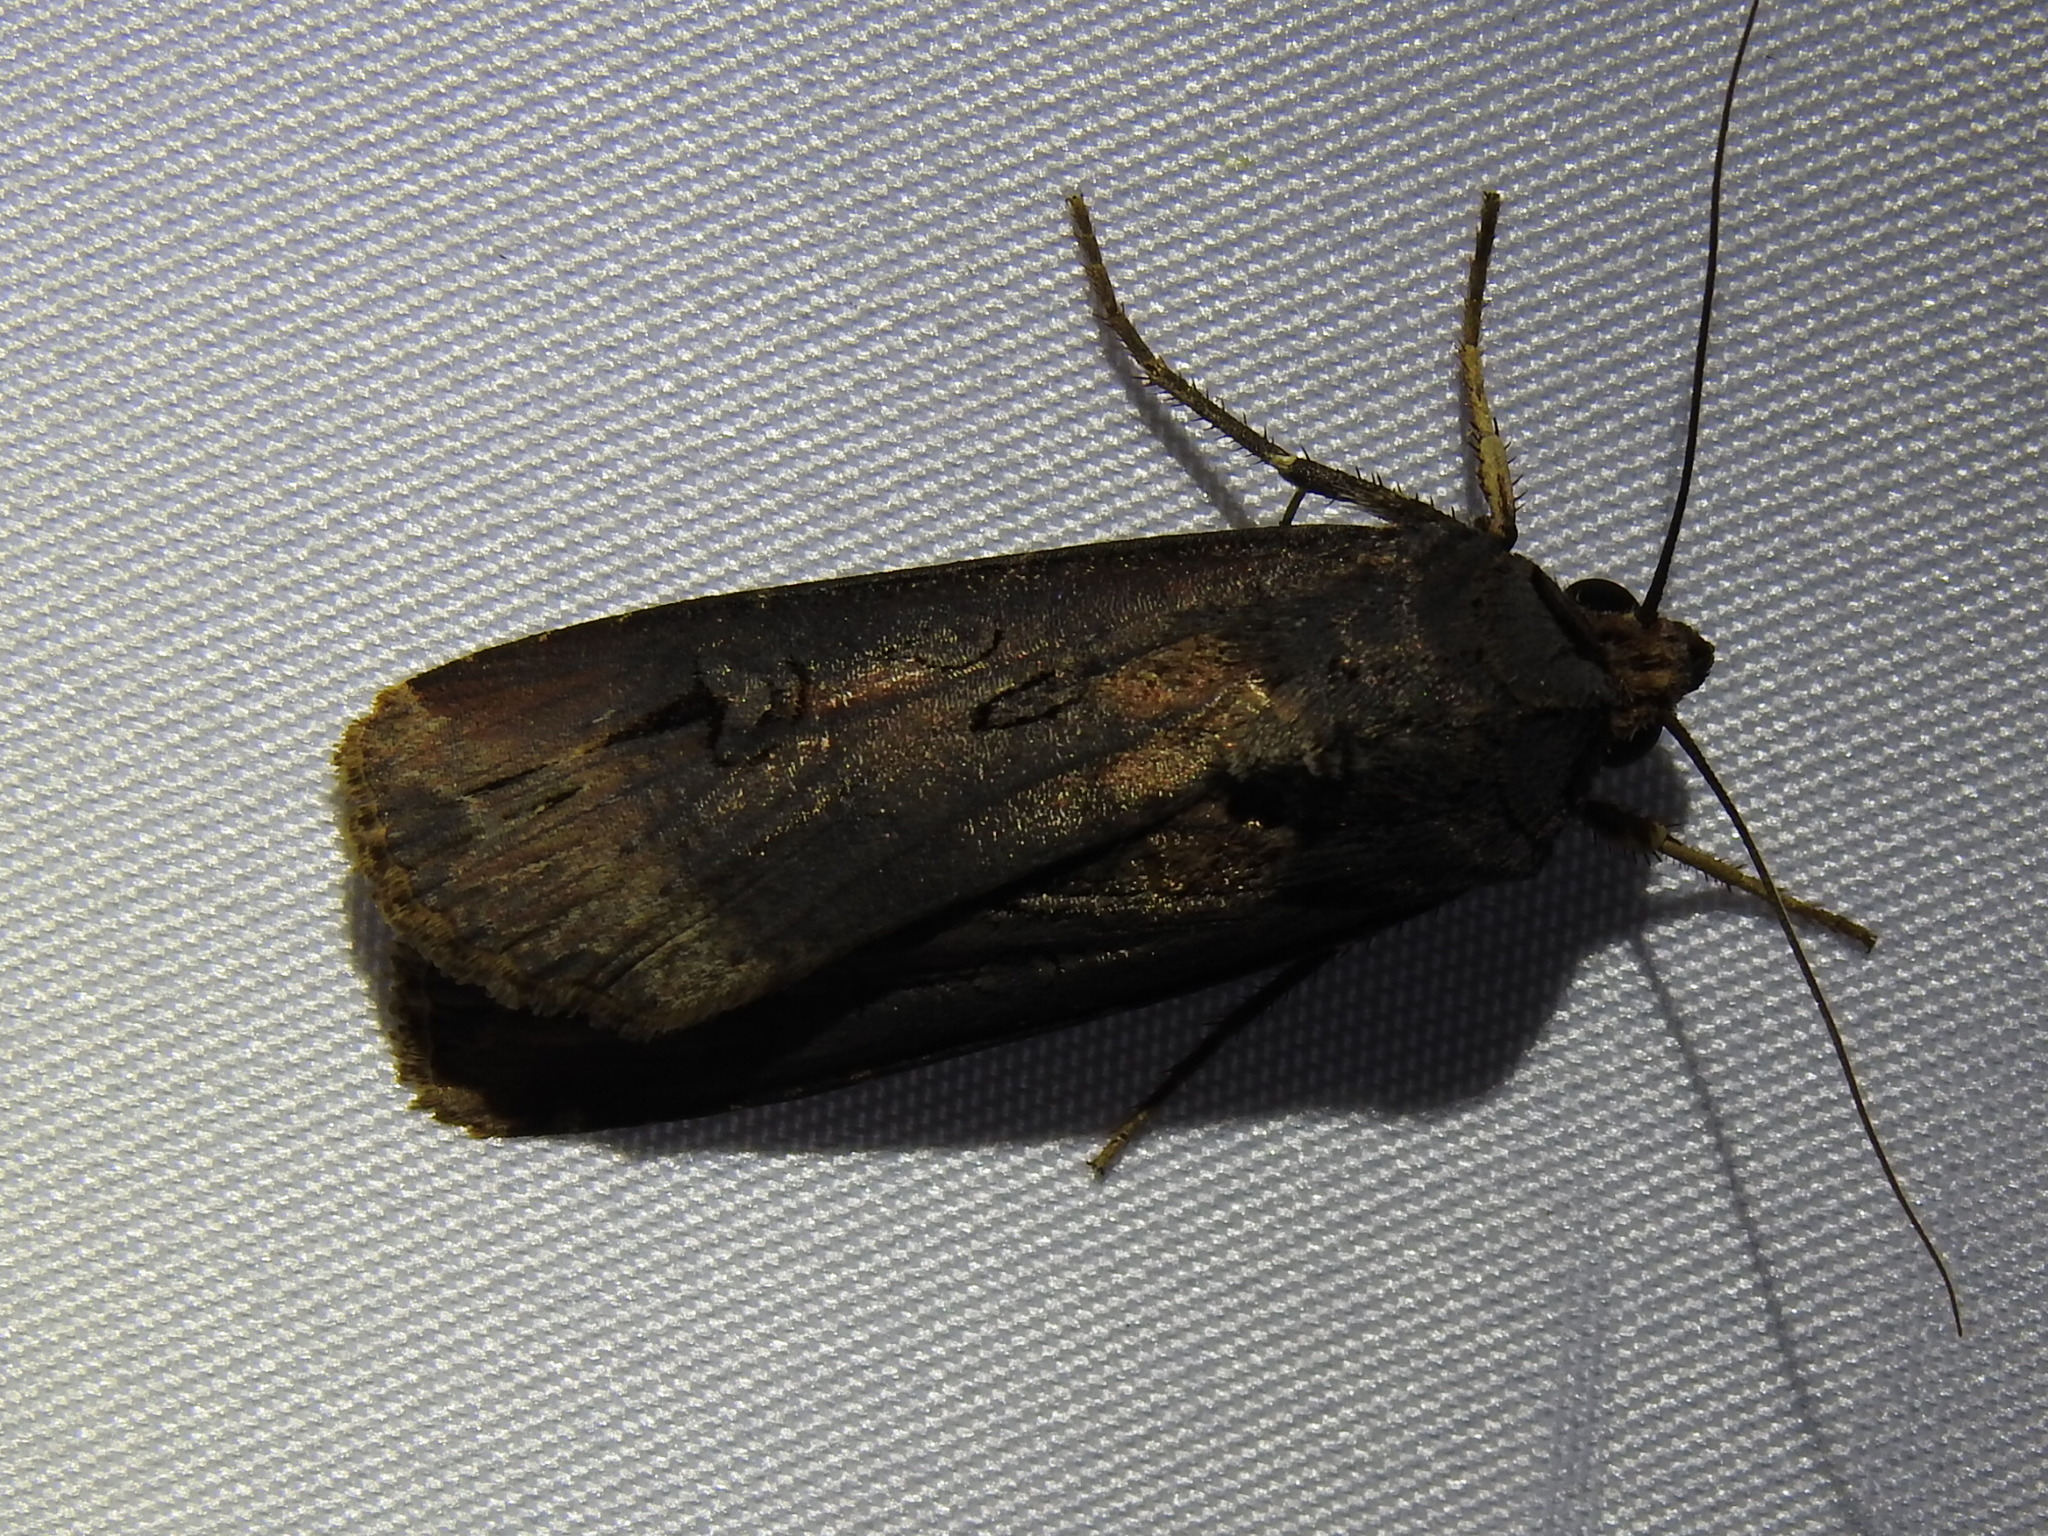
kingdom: Animalia
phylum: Arthropoda
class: Insecta
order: Lepidoptera
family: Noctuidae
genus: Agrotis
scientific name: Agrotis ipsilon
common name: Dark sword-grass
